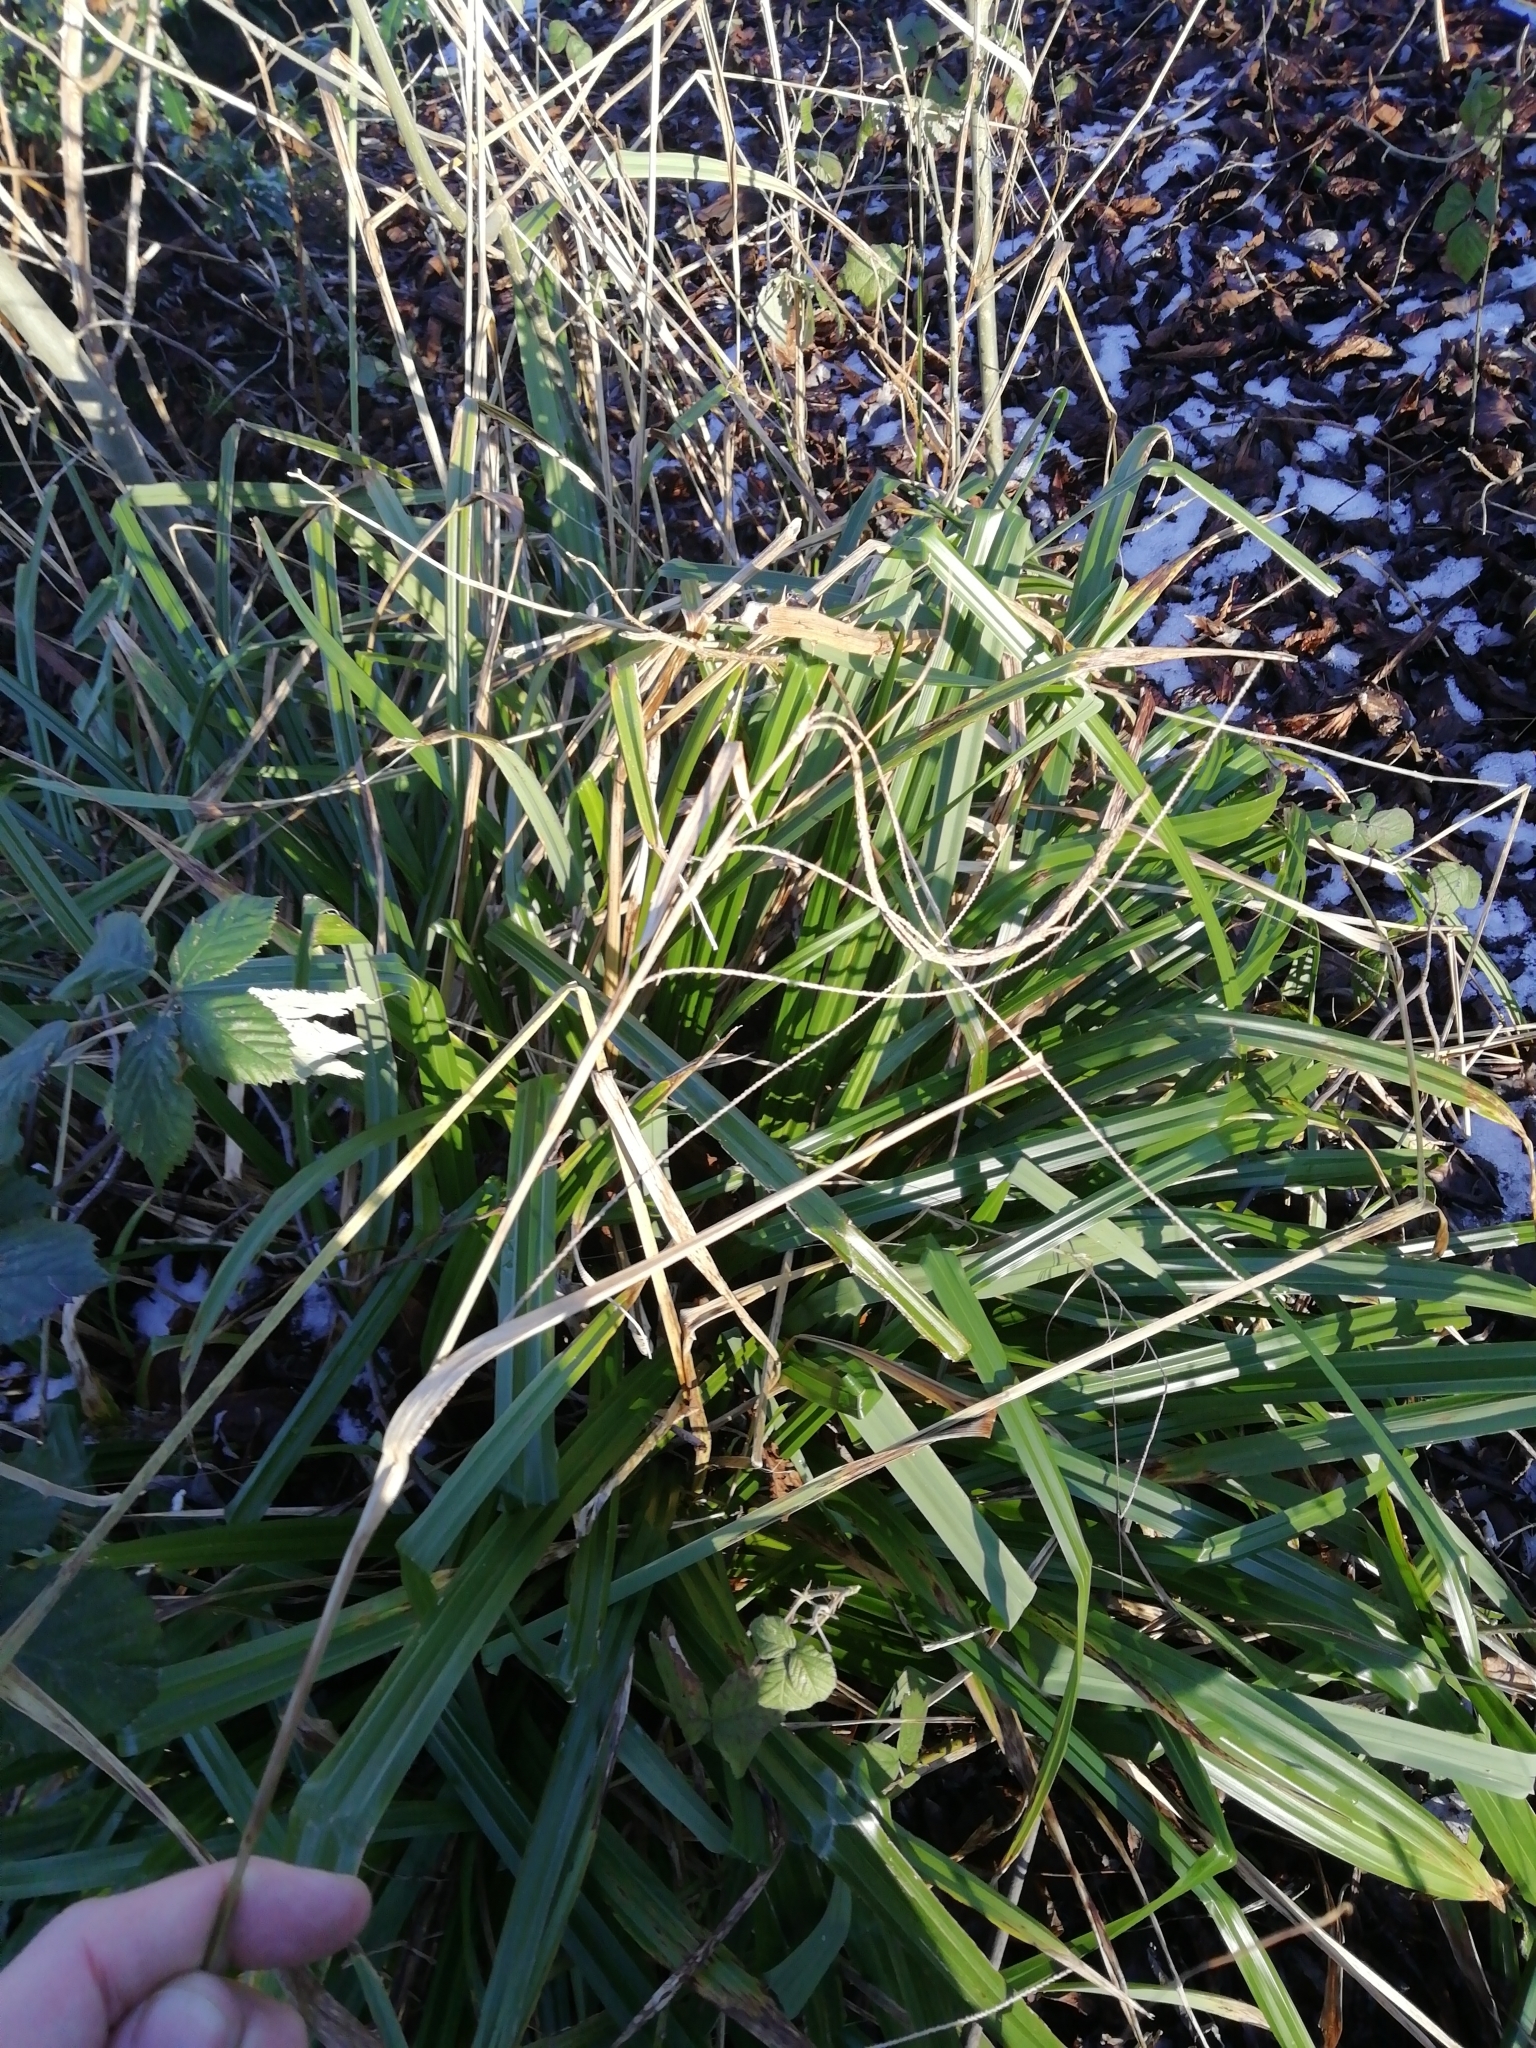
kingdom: Plantae
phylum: Tracheophyta
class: Liliopsida
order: Poales
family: Cyperaceae
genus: Carex
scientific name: Carex pendula
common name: Pendulous sedge
